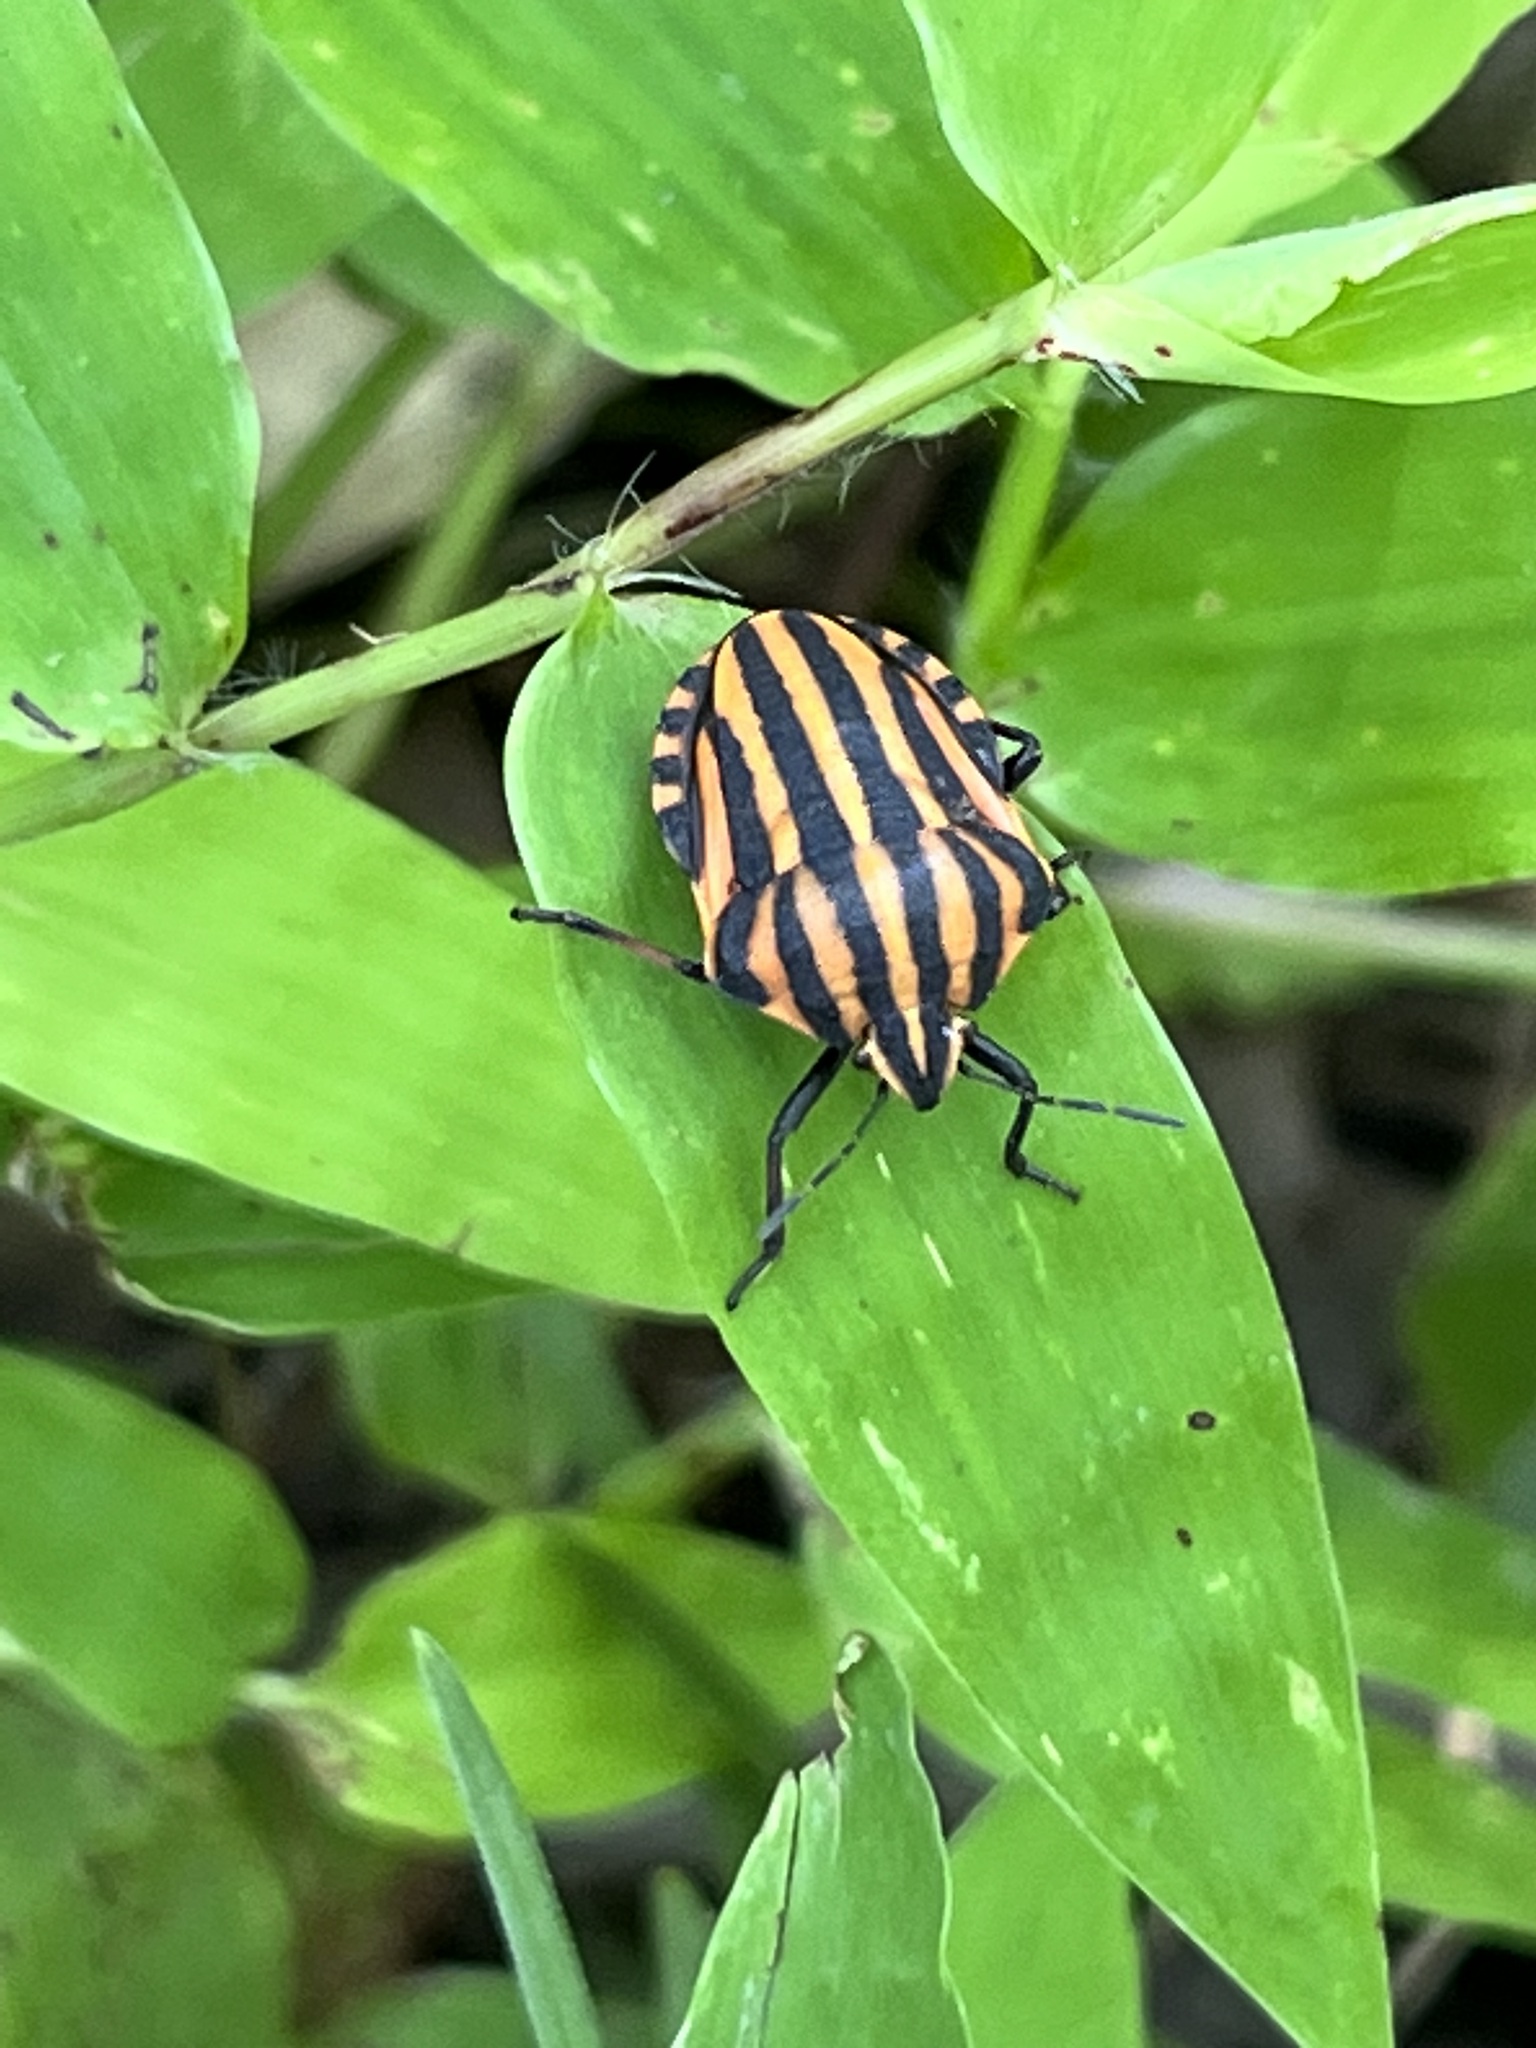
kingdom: Animalia
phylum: Arthropoda
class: Insecta
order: Hemiptera
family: Pentatomidae
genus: Graphosoma
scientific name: Graphosoma italicum
